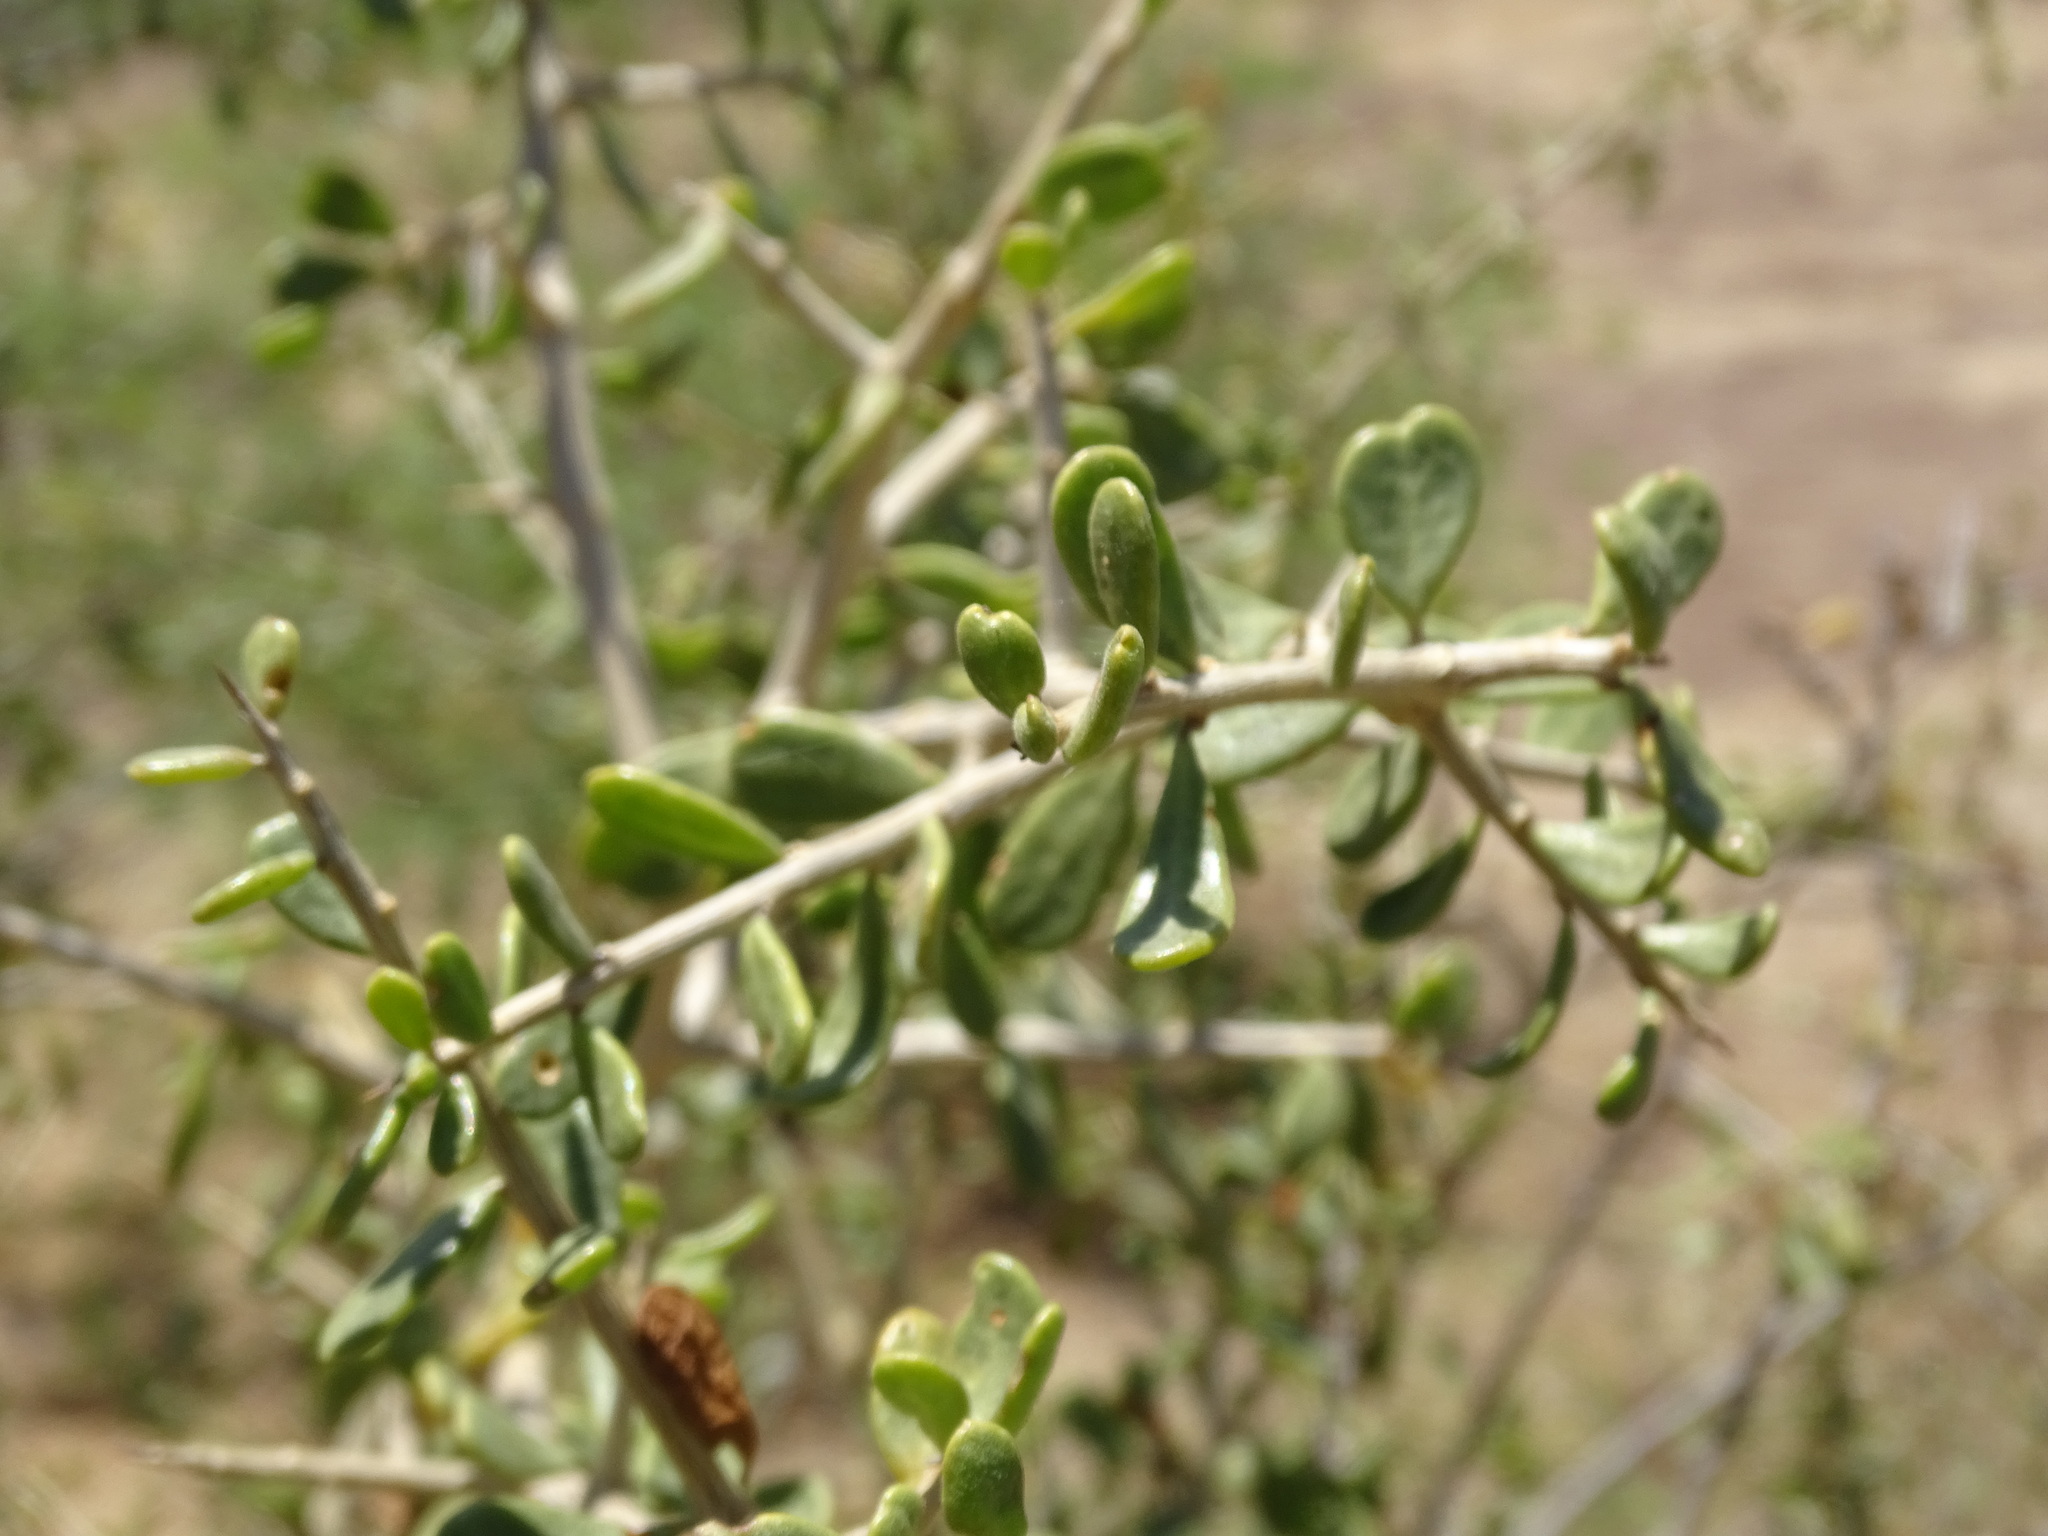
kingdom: Plantae
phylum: Tracheophyta
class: Magnoliopsida
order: Solanales
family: Solanaceae
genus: Lycium
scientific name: Lycium brevipes
